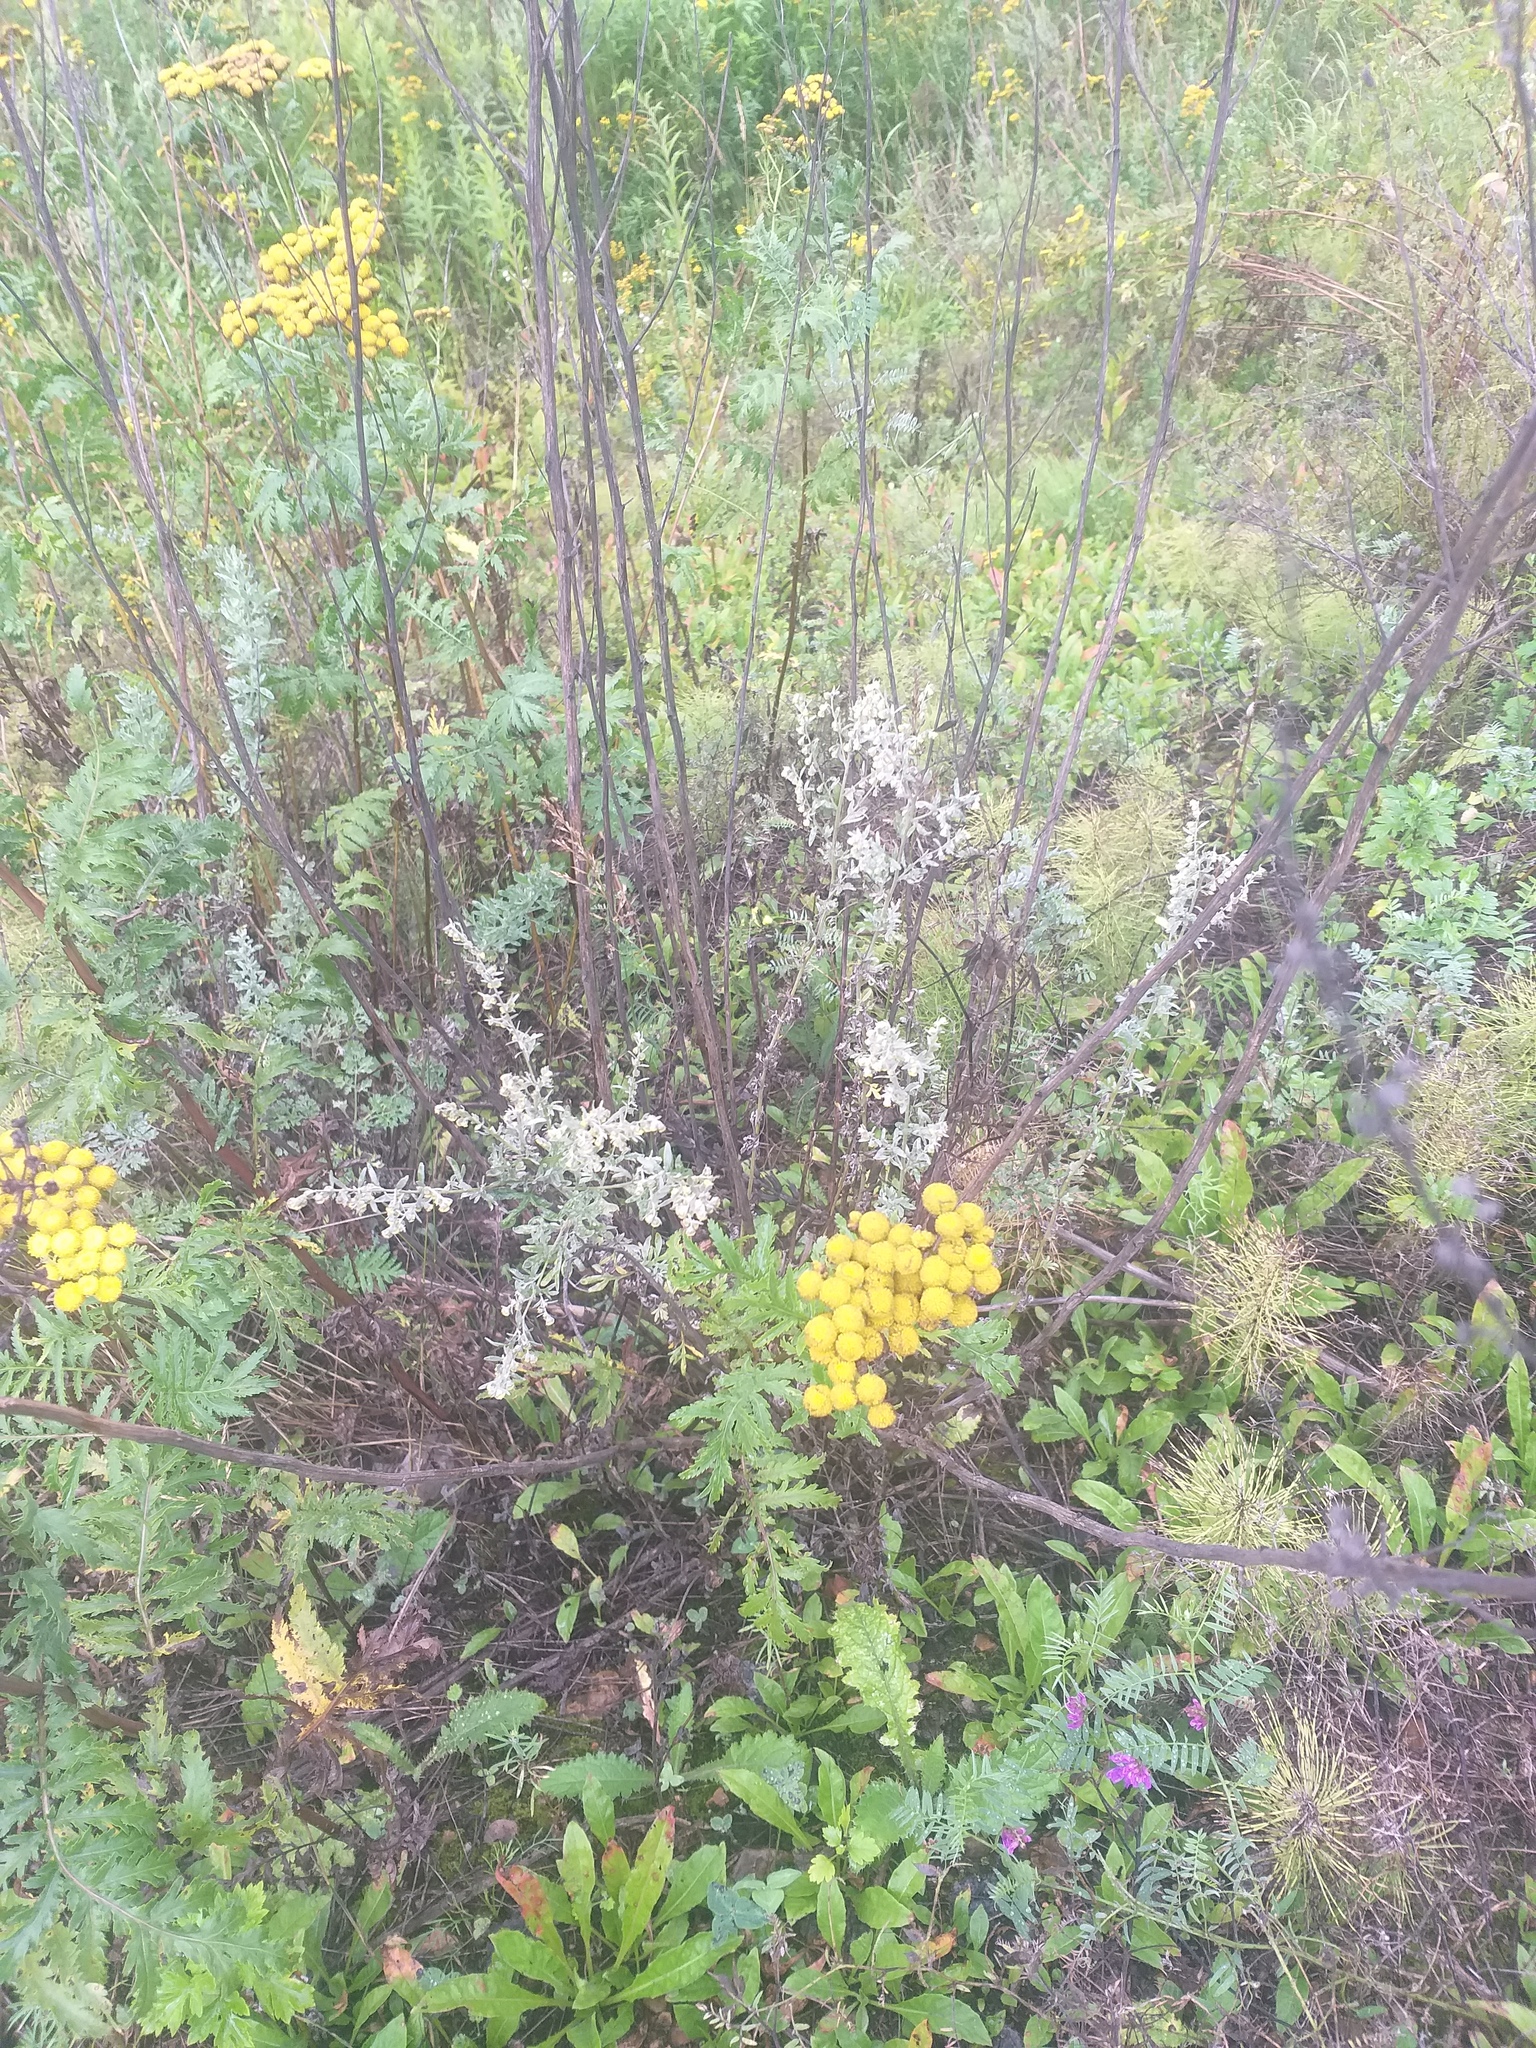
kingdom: Plantae
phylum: Tracheophyta
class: Magnoliopsida
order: Asterales
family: Asteraceae
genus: Artemisia
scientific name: Artemisia absinthium
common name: Wormwood
